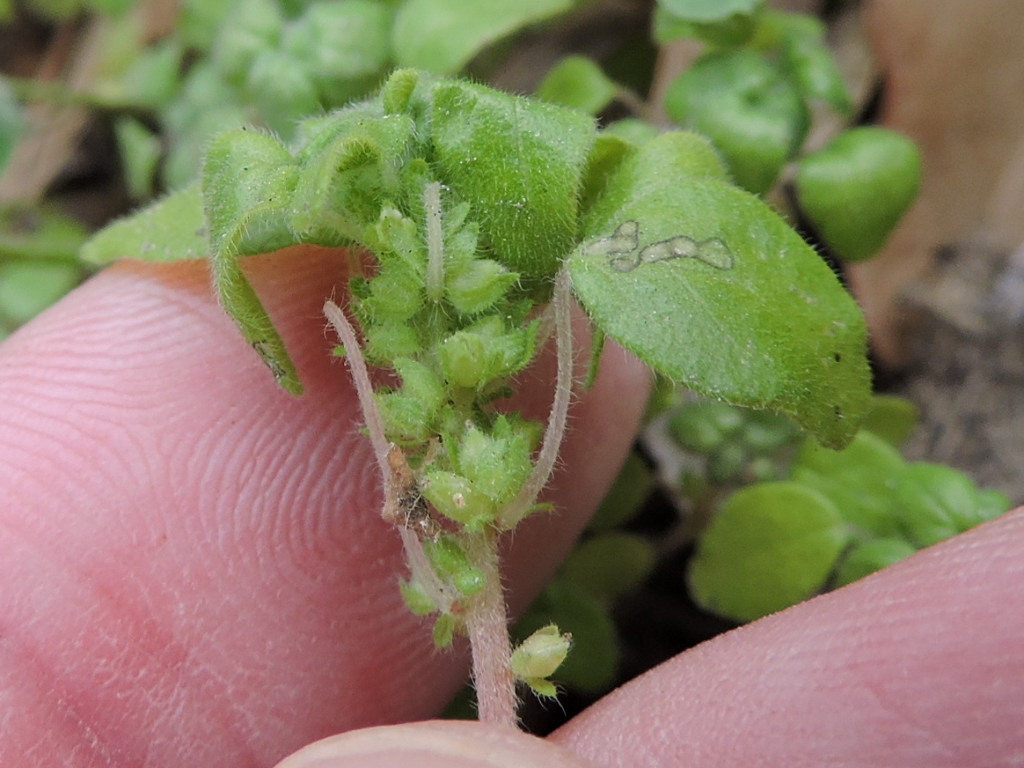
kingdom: Plantae
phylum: Tracheophyta
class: Magnoliopsida
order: Rosales
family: Urticaceae
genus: Parietaria
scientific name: Parietaria pensylvanica
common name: Pennsylvania pellitory
